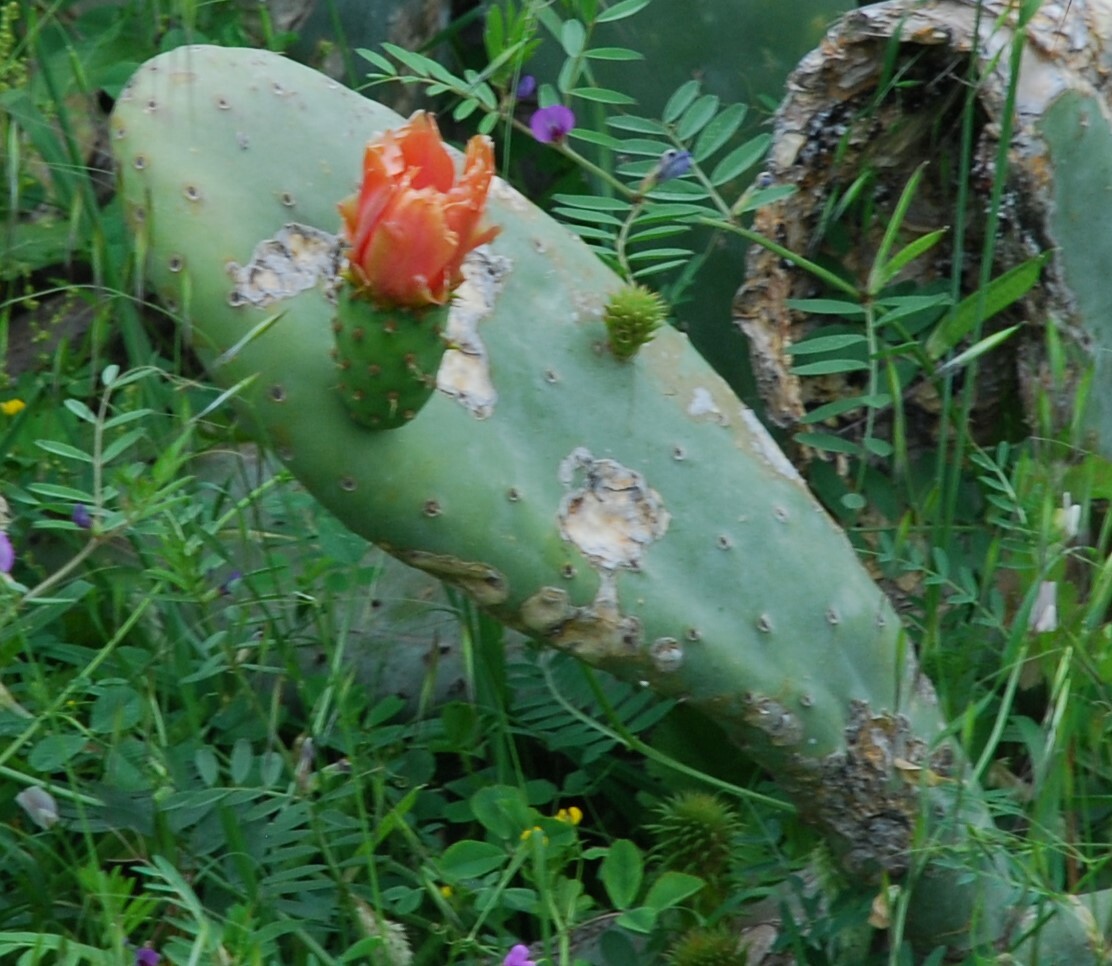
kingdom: Plantae
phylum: Tracheophyta
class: Magnoliopsida
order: Caryophyllales
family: Cactaceae
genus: Opuntia
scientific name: Opuntia ficus-indica
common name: Barbary fig
